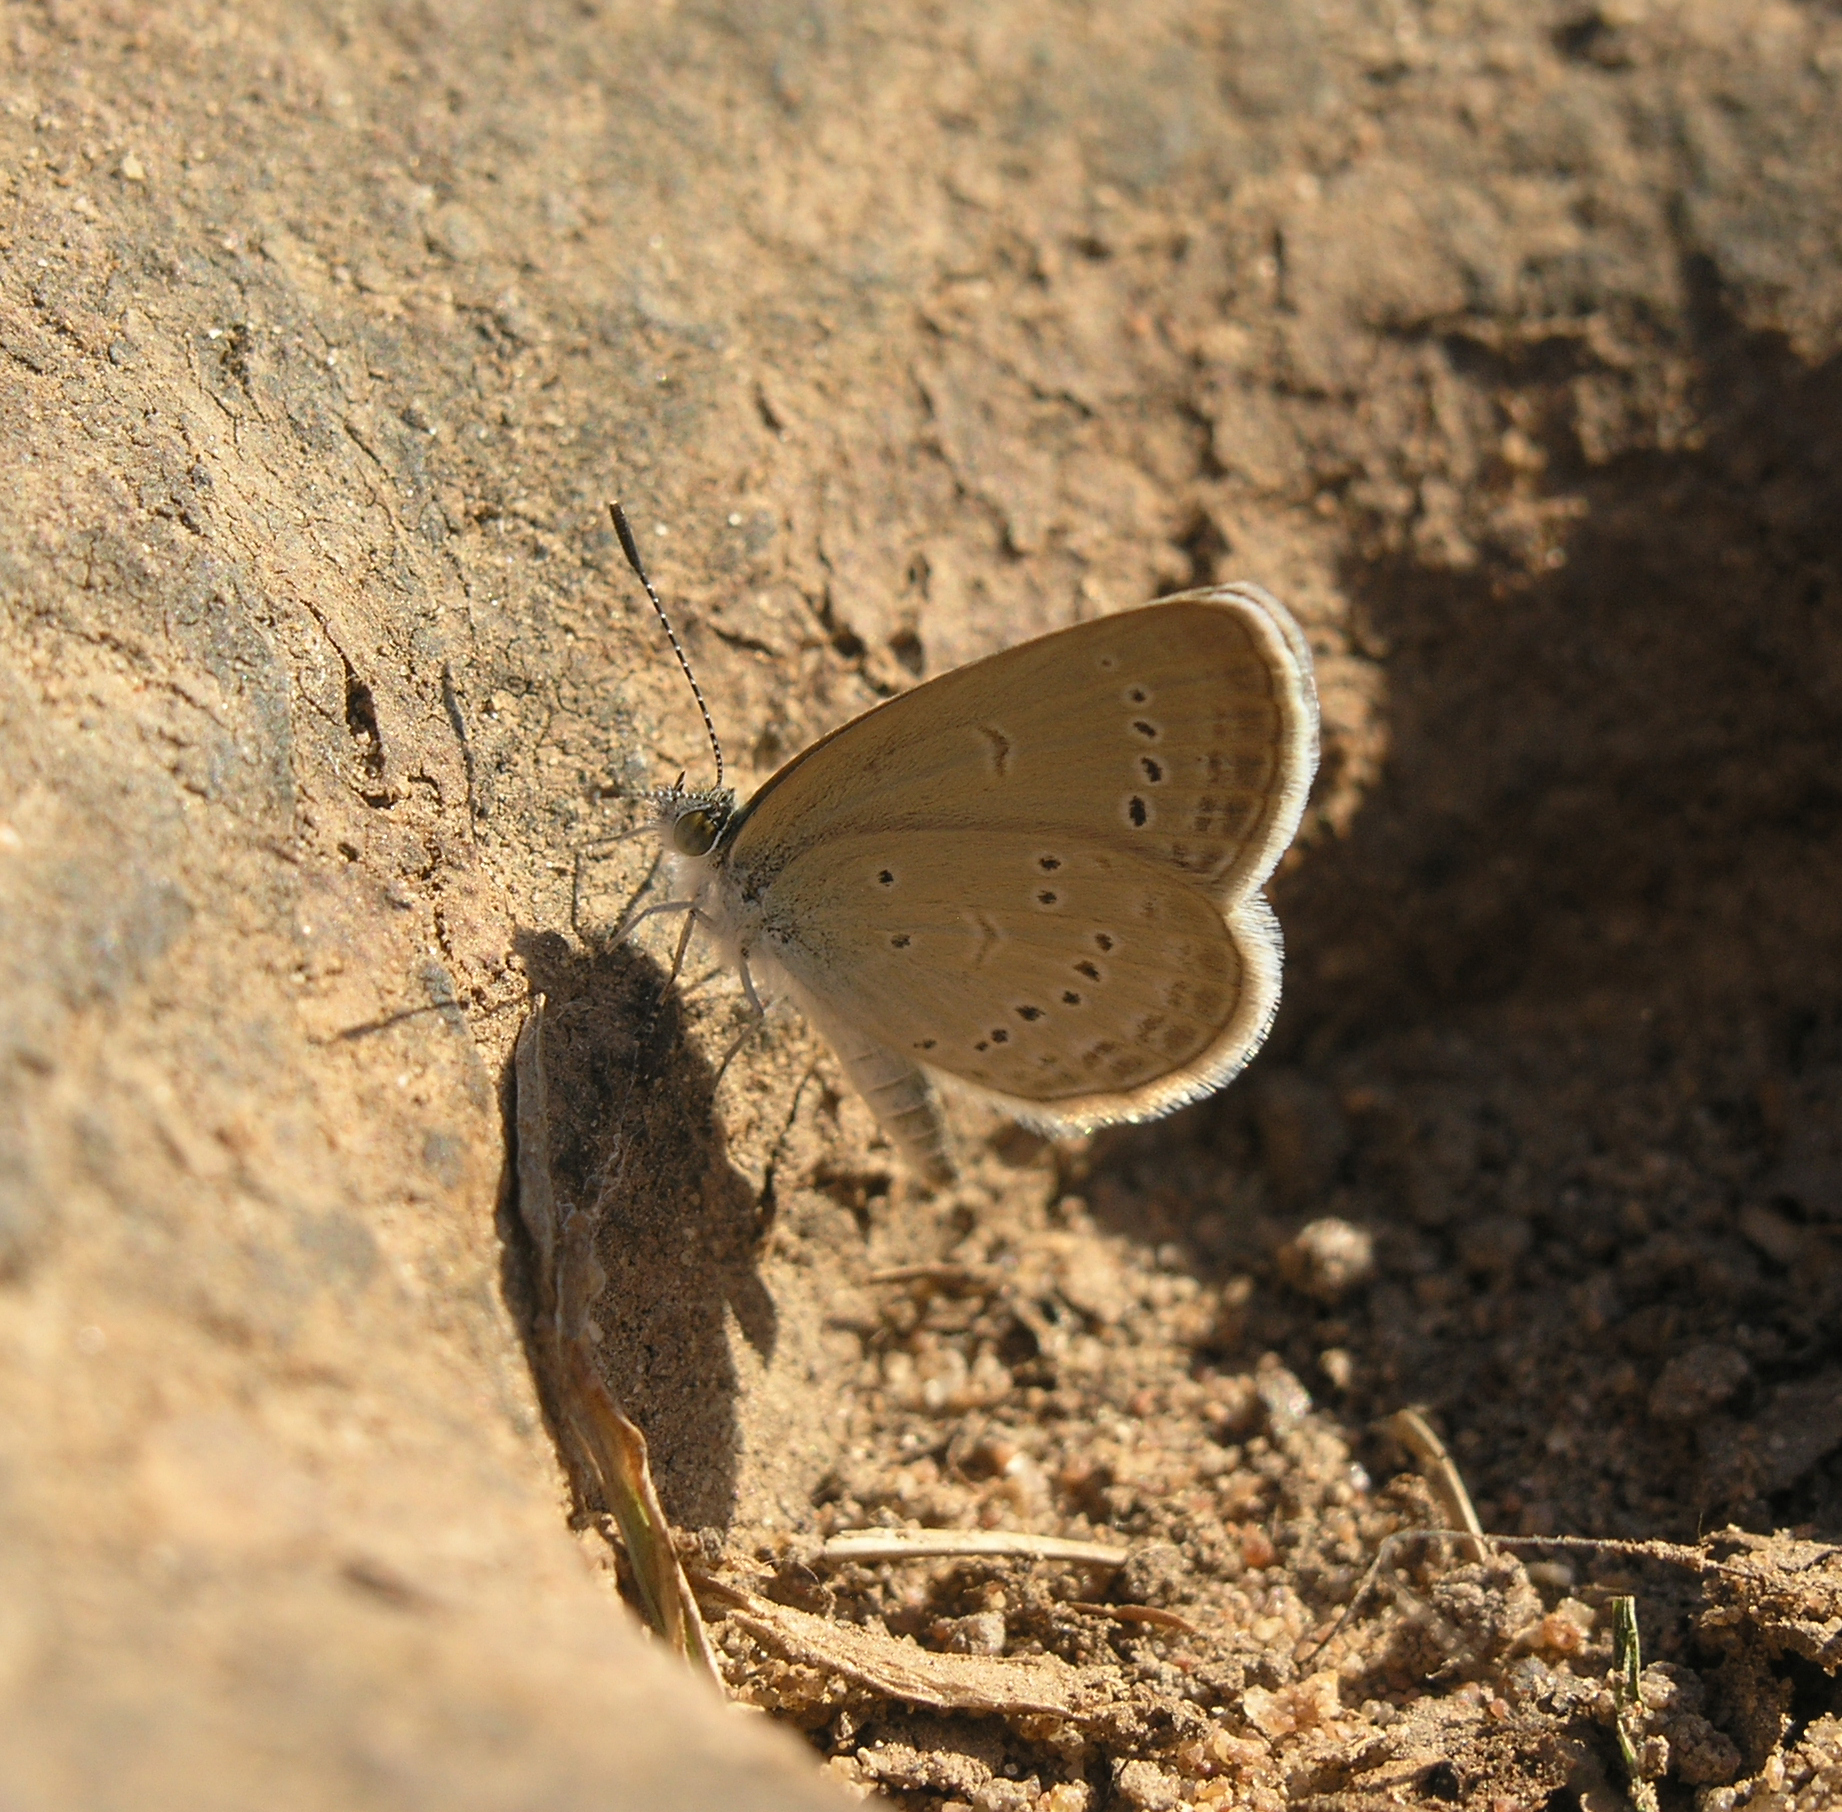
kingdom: Animalia
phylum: Arthropoda
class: Insecta
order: Lepidoptera
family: Lycaenidae
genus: Zizina
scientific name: Zizina otis
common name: Lesser grass blue
